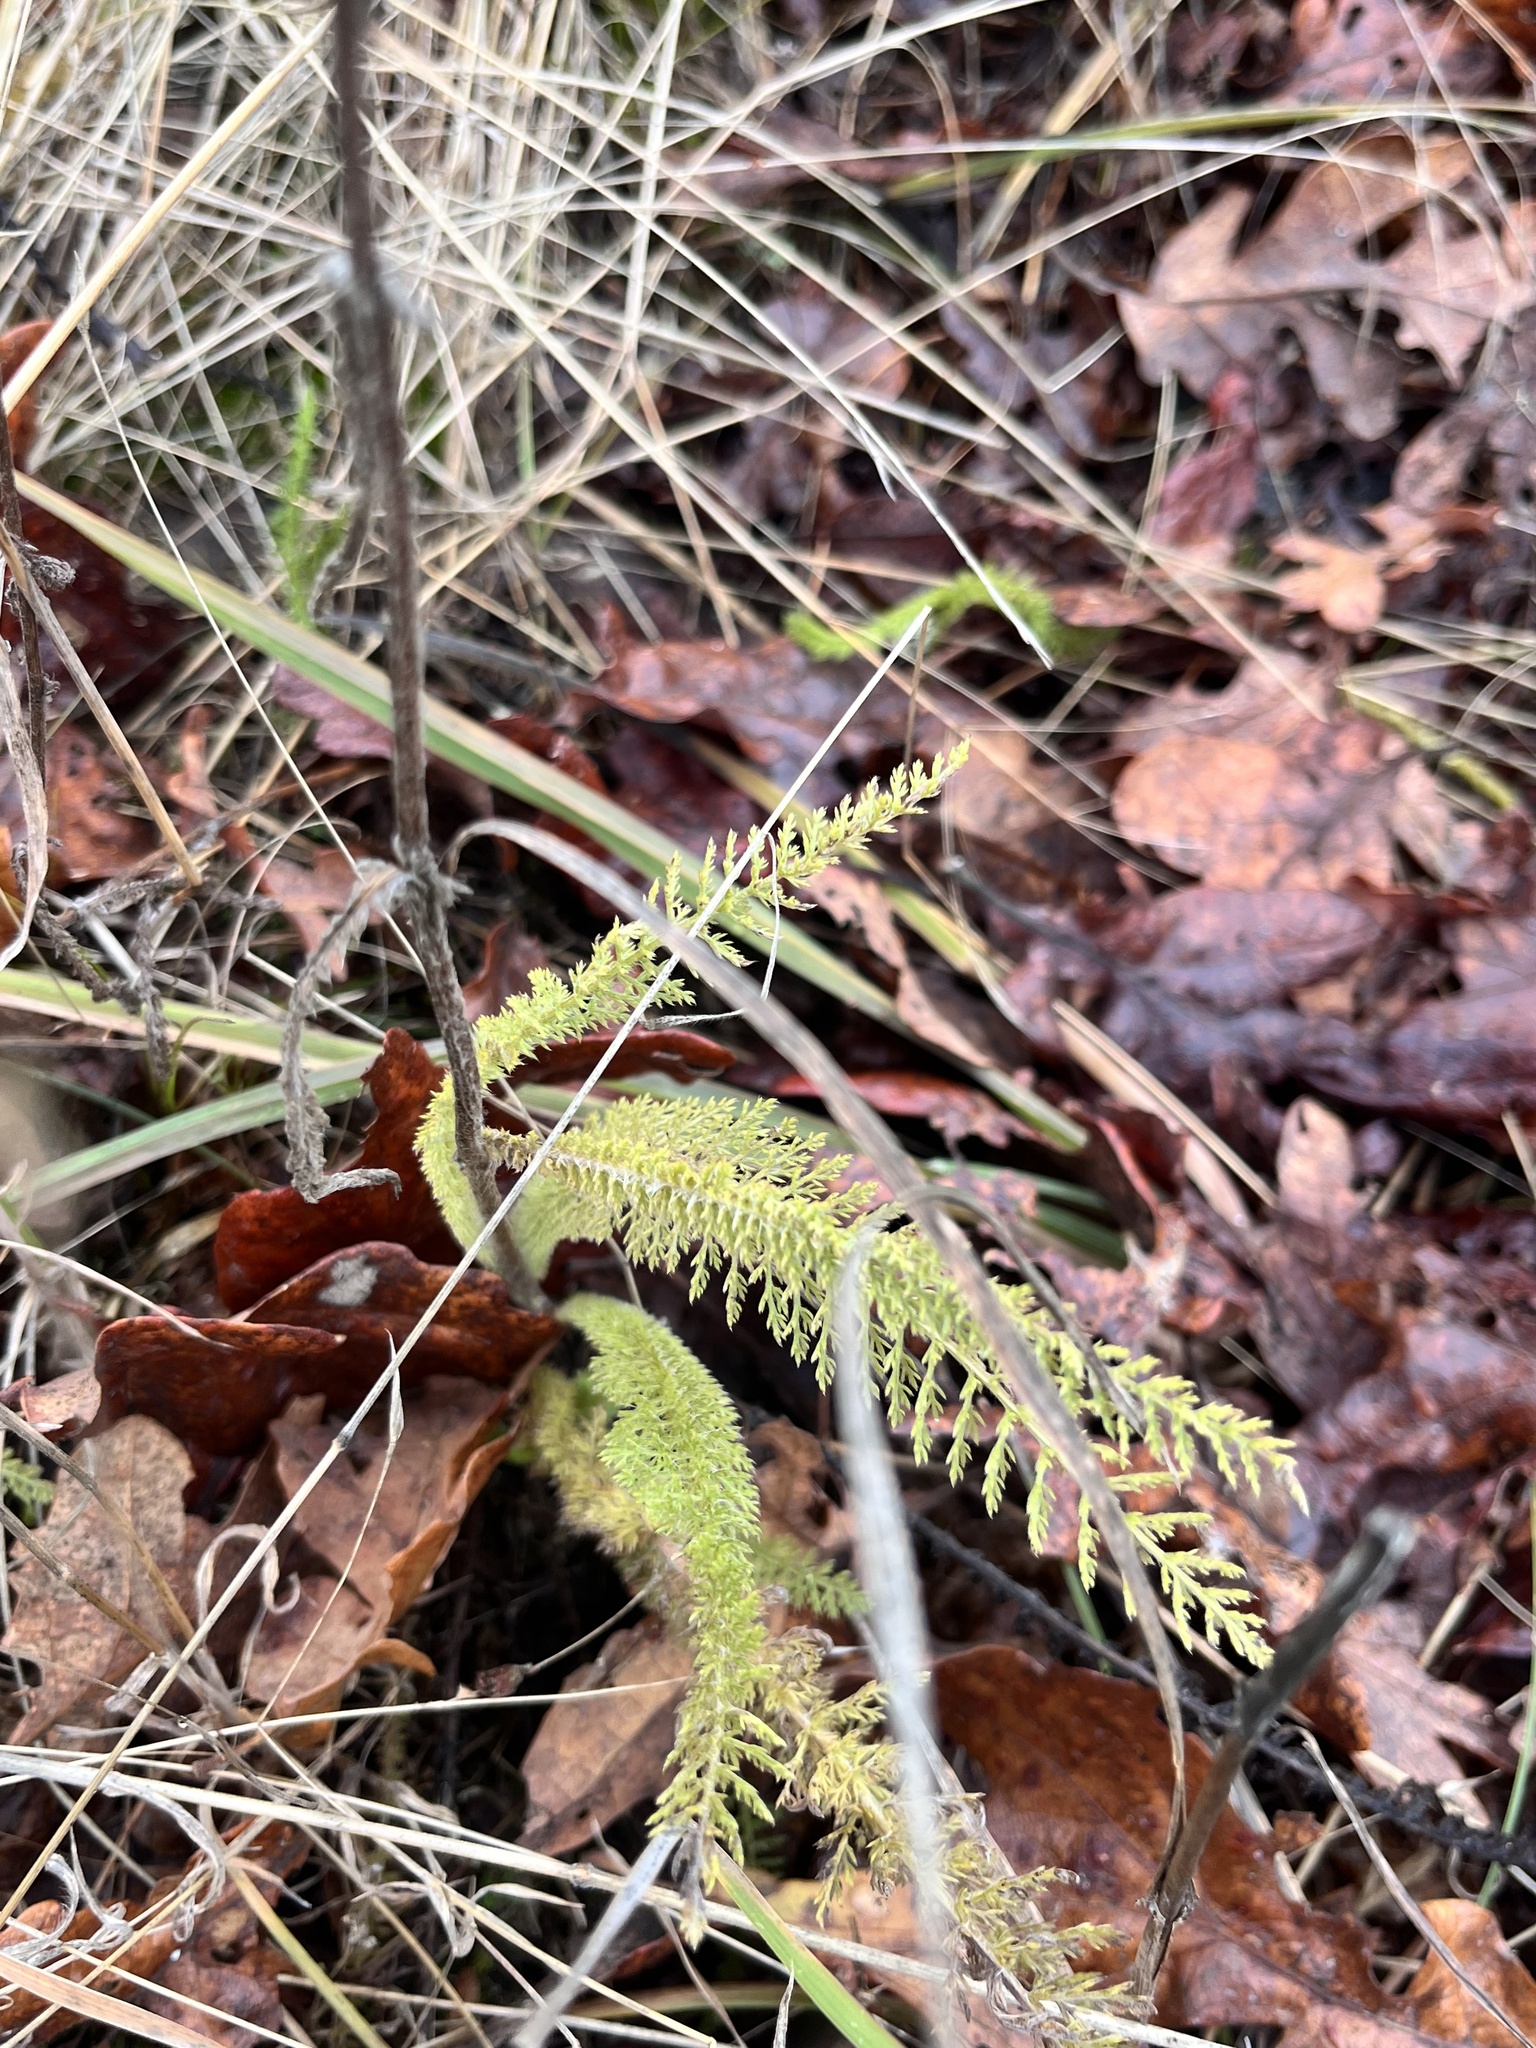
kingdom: Plantae
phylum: Tracheophyta
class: Magnoliopsida
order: Asterales
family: Asteraceae
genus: Achillea
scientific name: Achillea millefolium
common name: Yarrow
